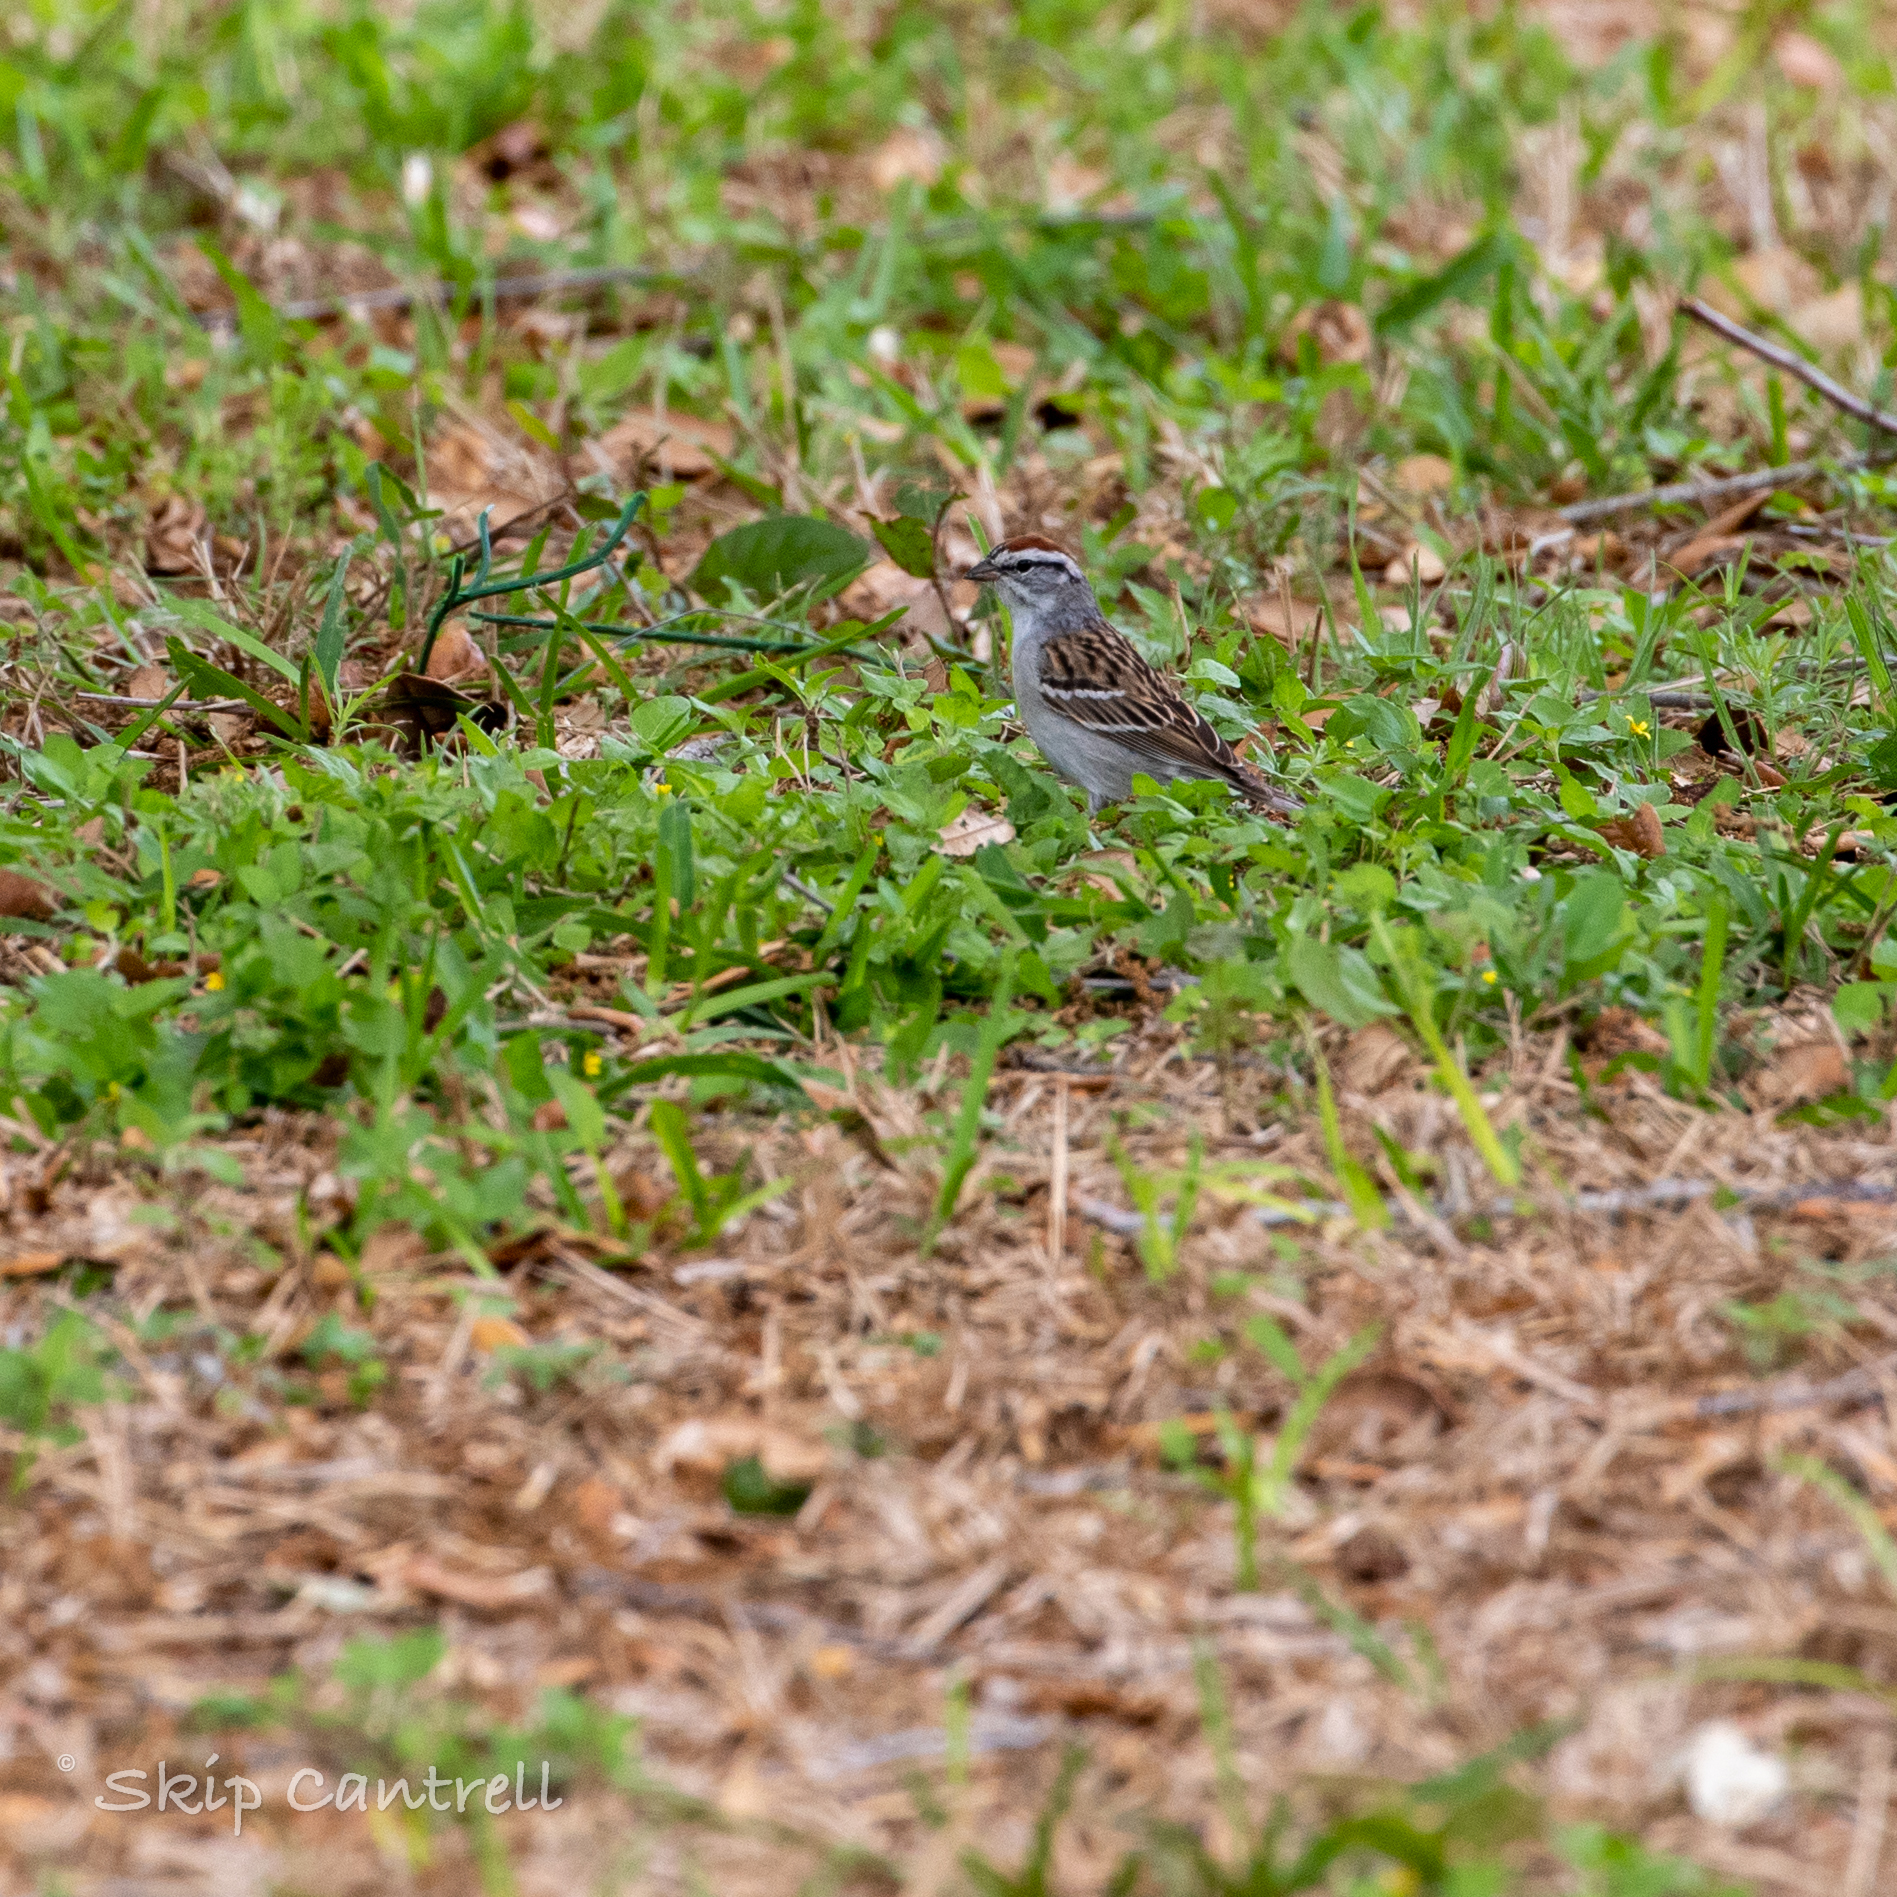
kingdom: Animalia
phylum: Chordata
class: Aves
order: Passeriformes
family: Passerellidae
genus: Spizella
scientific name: Spizella passerina
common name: Chipping sparrow
